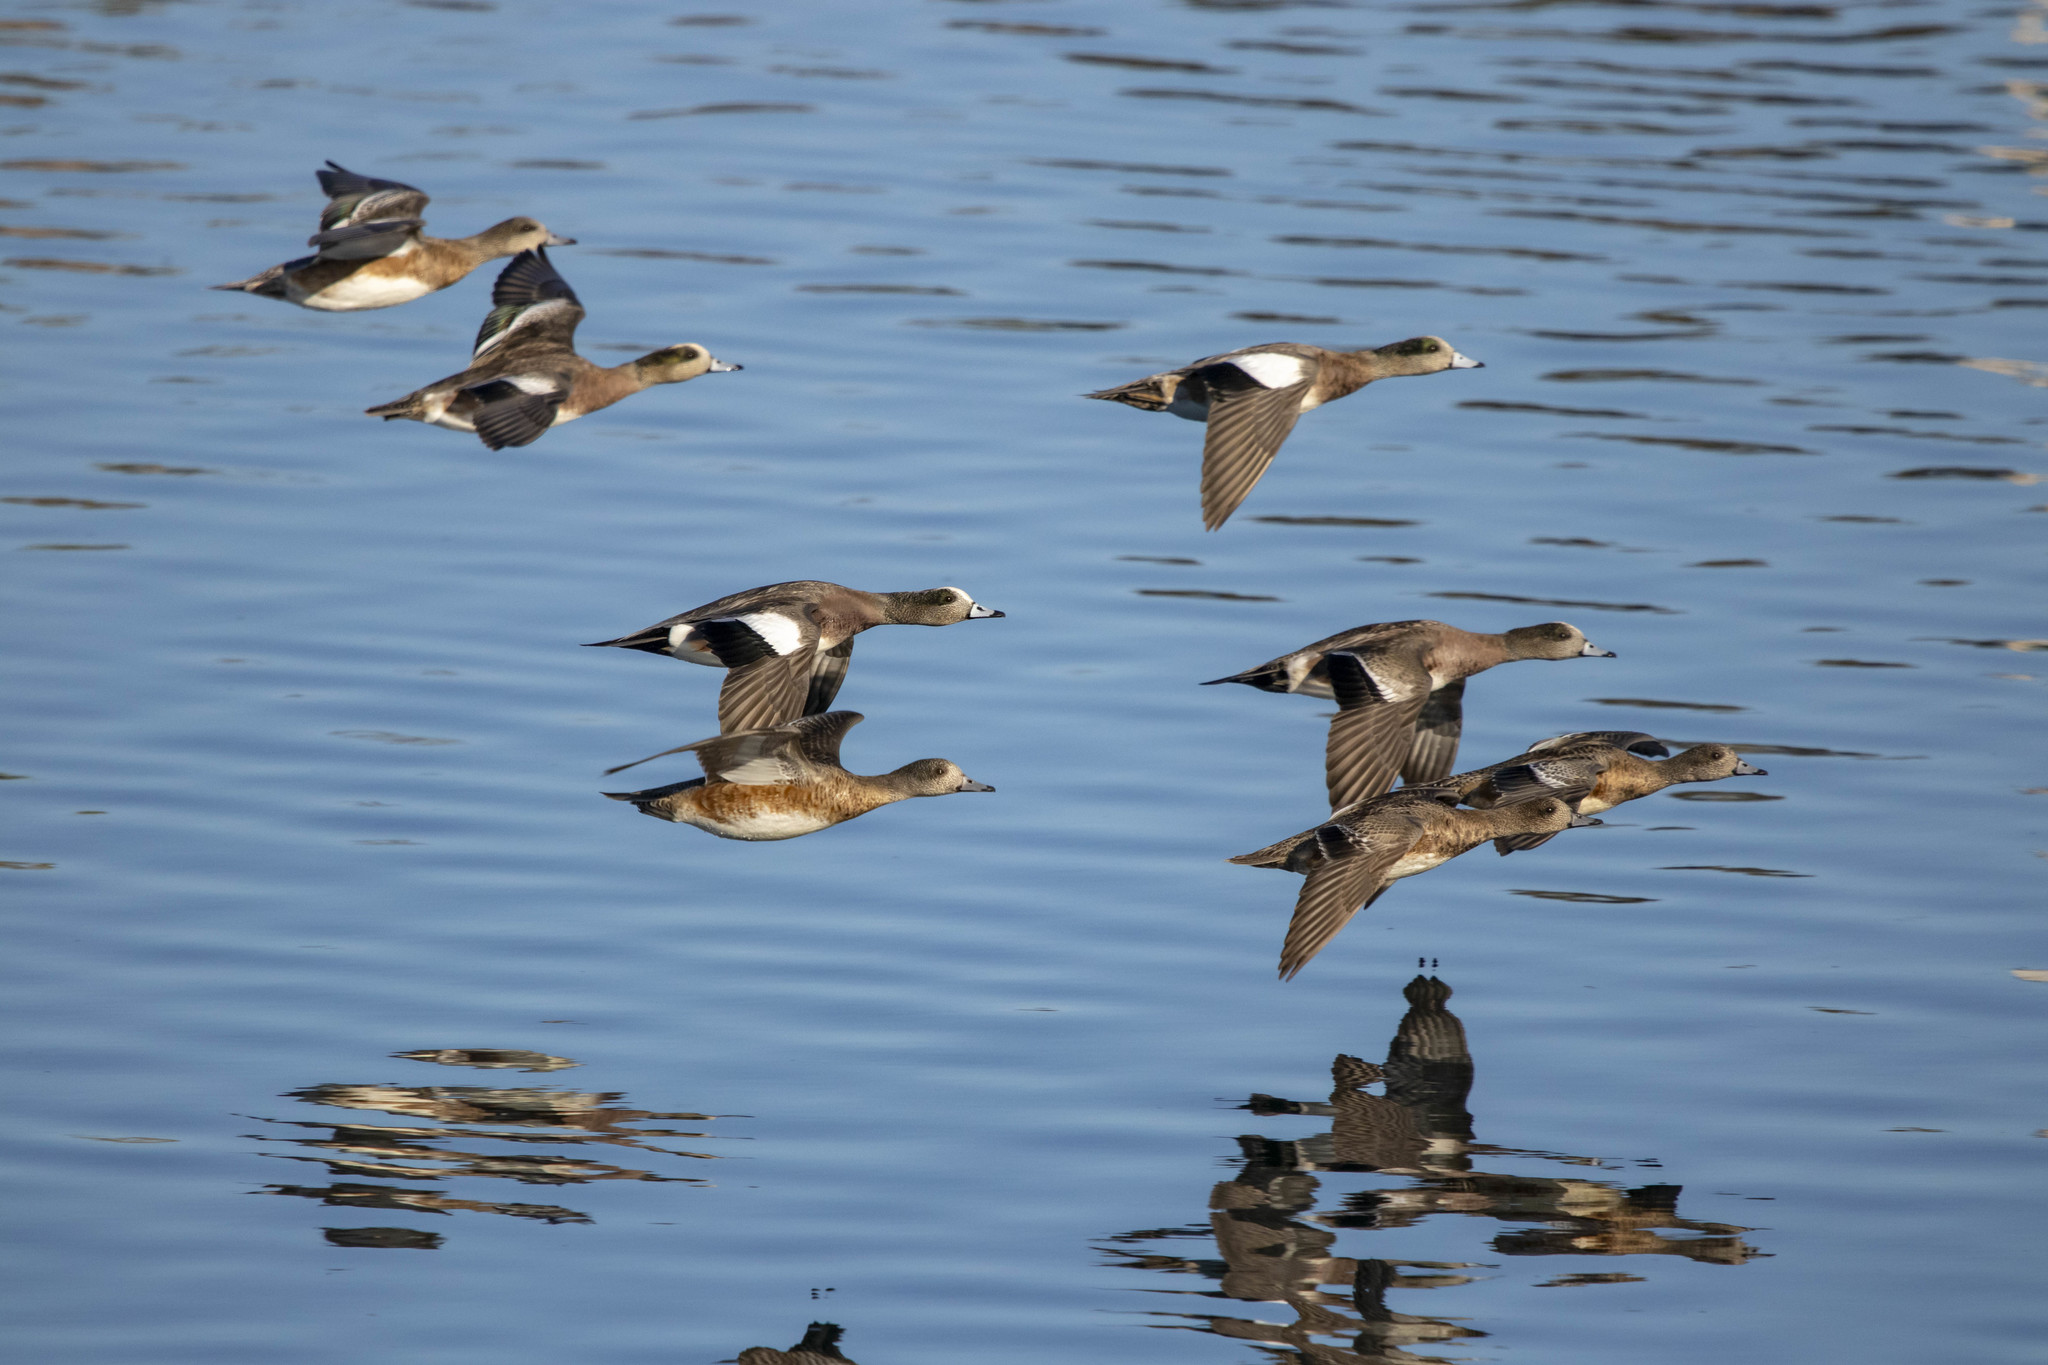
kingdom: Animalia
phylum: Chordata
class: Aves
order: Anseriformes
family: Anatidae
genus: Mareca
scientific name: Mareca americana
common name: American wigeon
